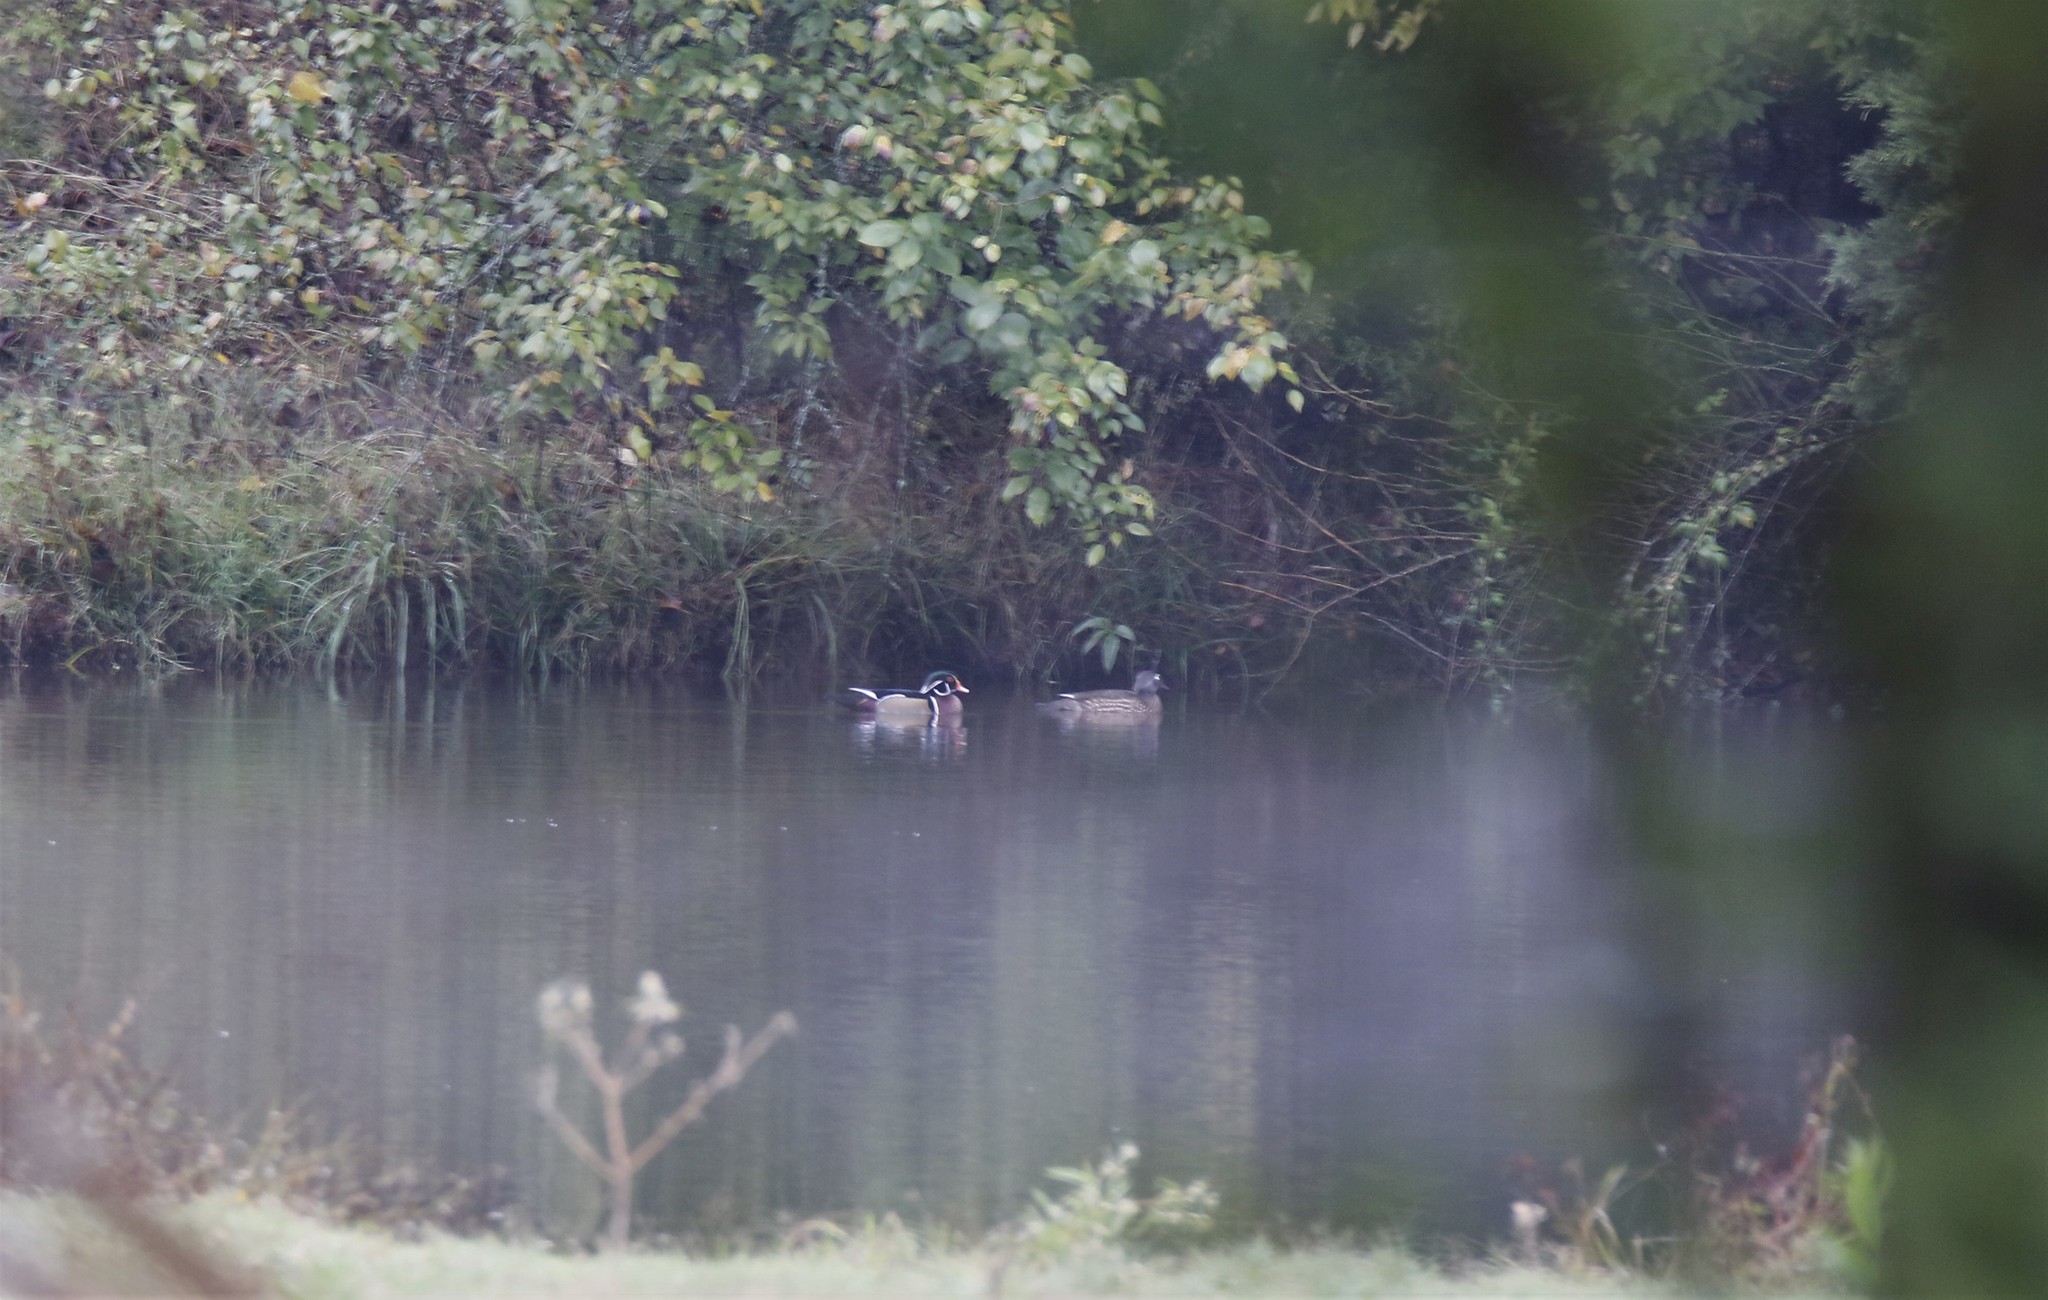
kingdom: Animalia
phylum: Chordata
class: Aves
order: Anseriformes
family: Anatidae
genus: Aix
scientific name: Aix sponsa
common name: Wood duck
